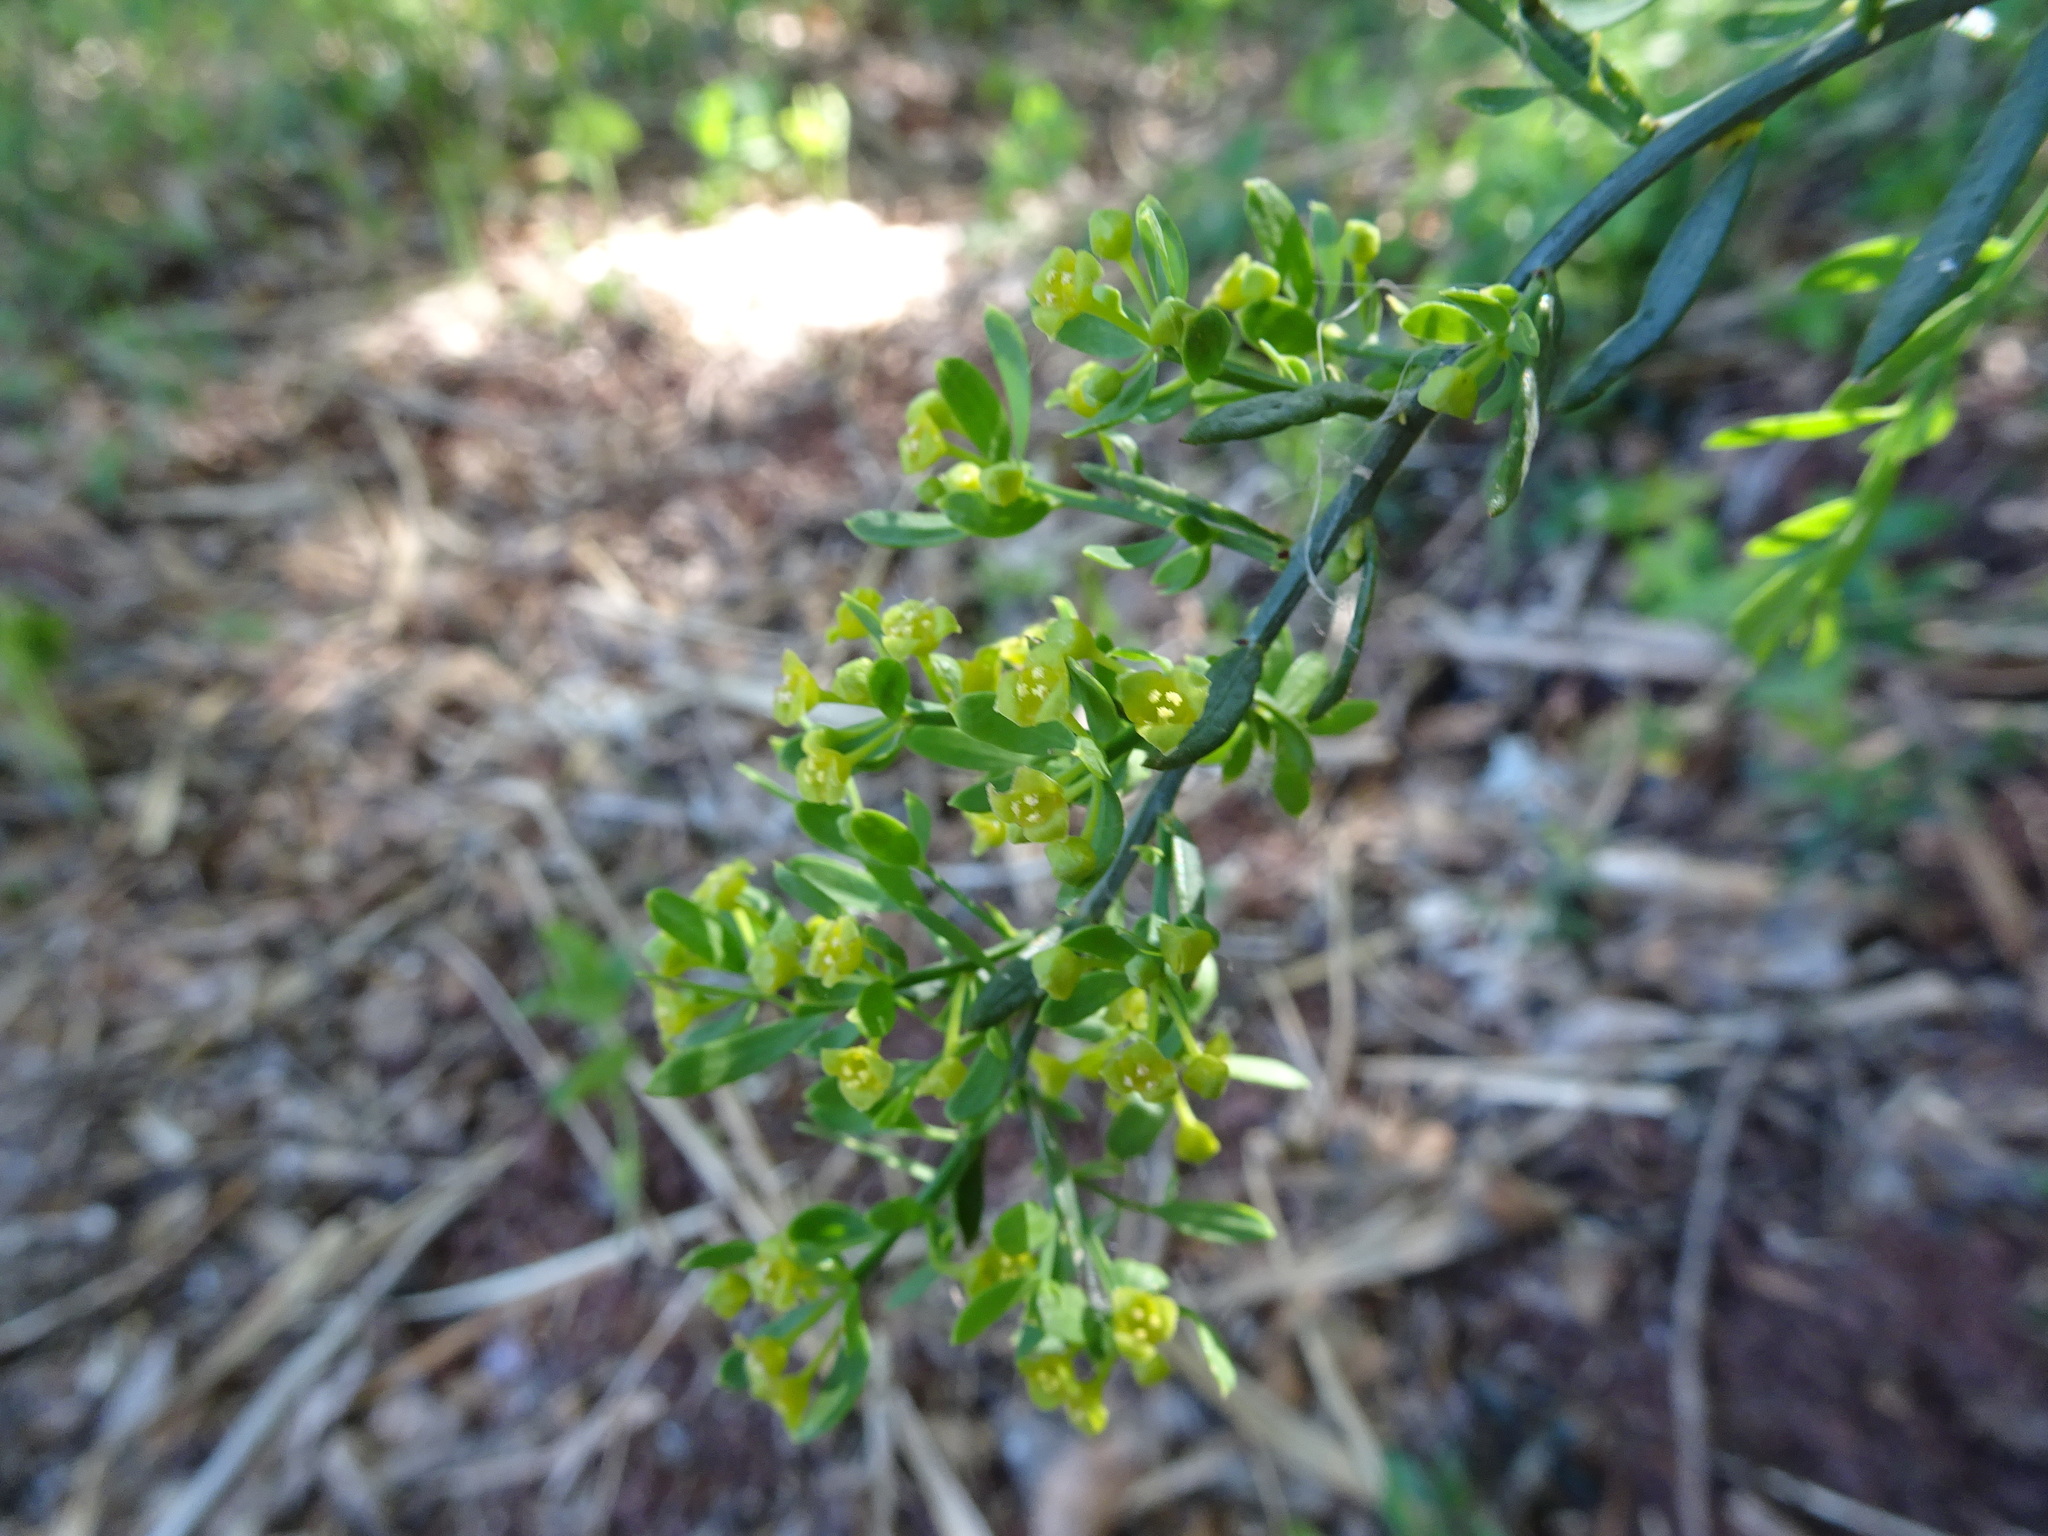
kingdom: Plantae
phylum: Tracheophyta
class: Magnoliopsida
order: Santalales
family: Santalaceae
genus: Osyris
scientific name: Osyris alba
